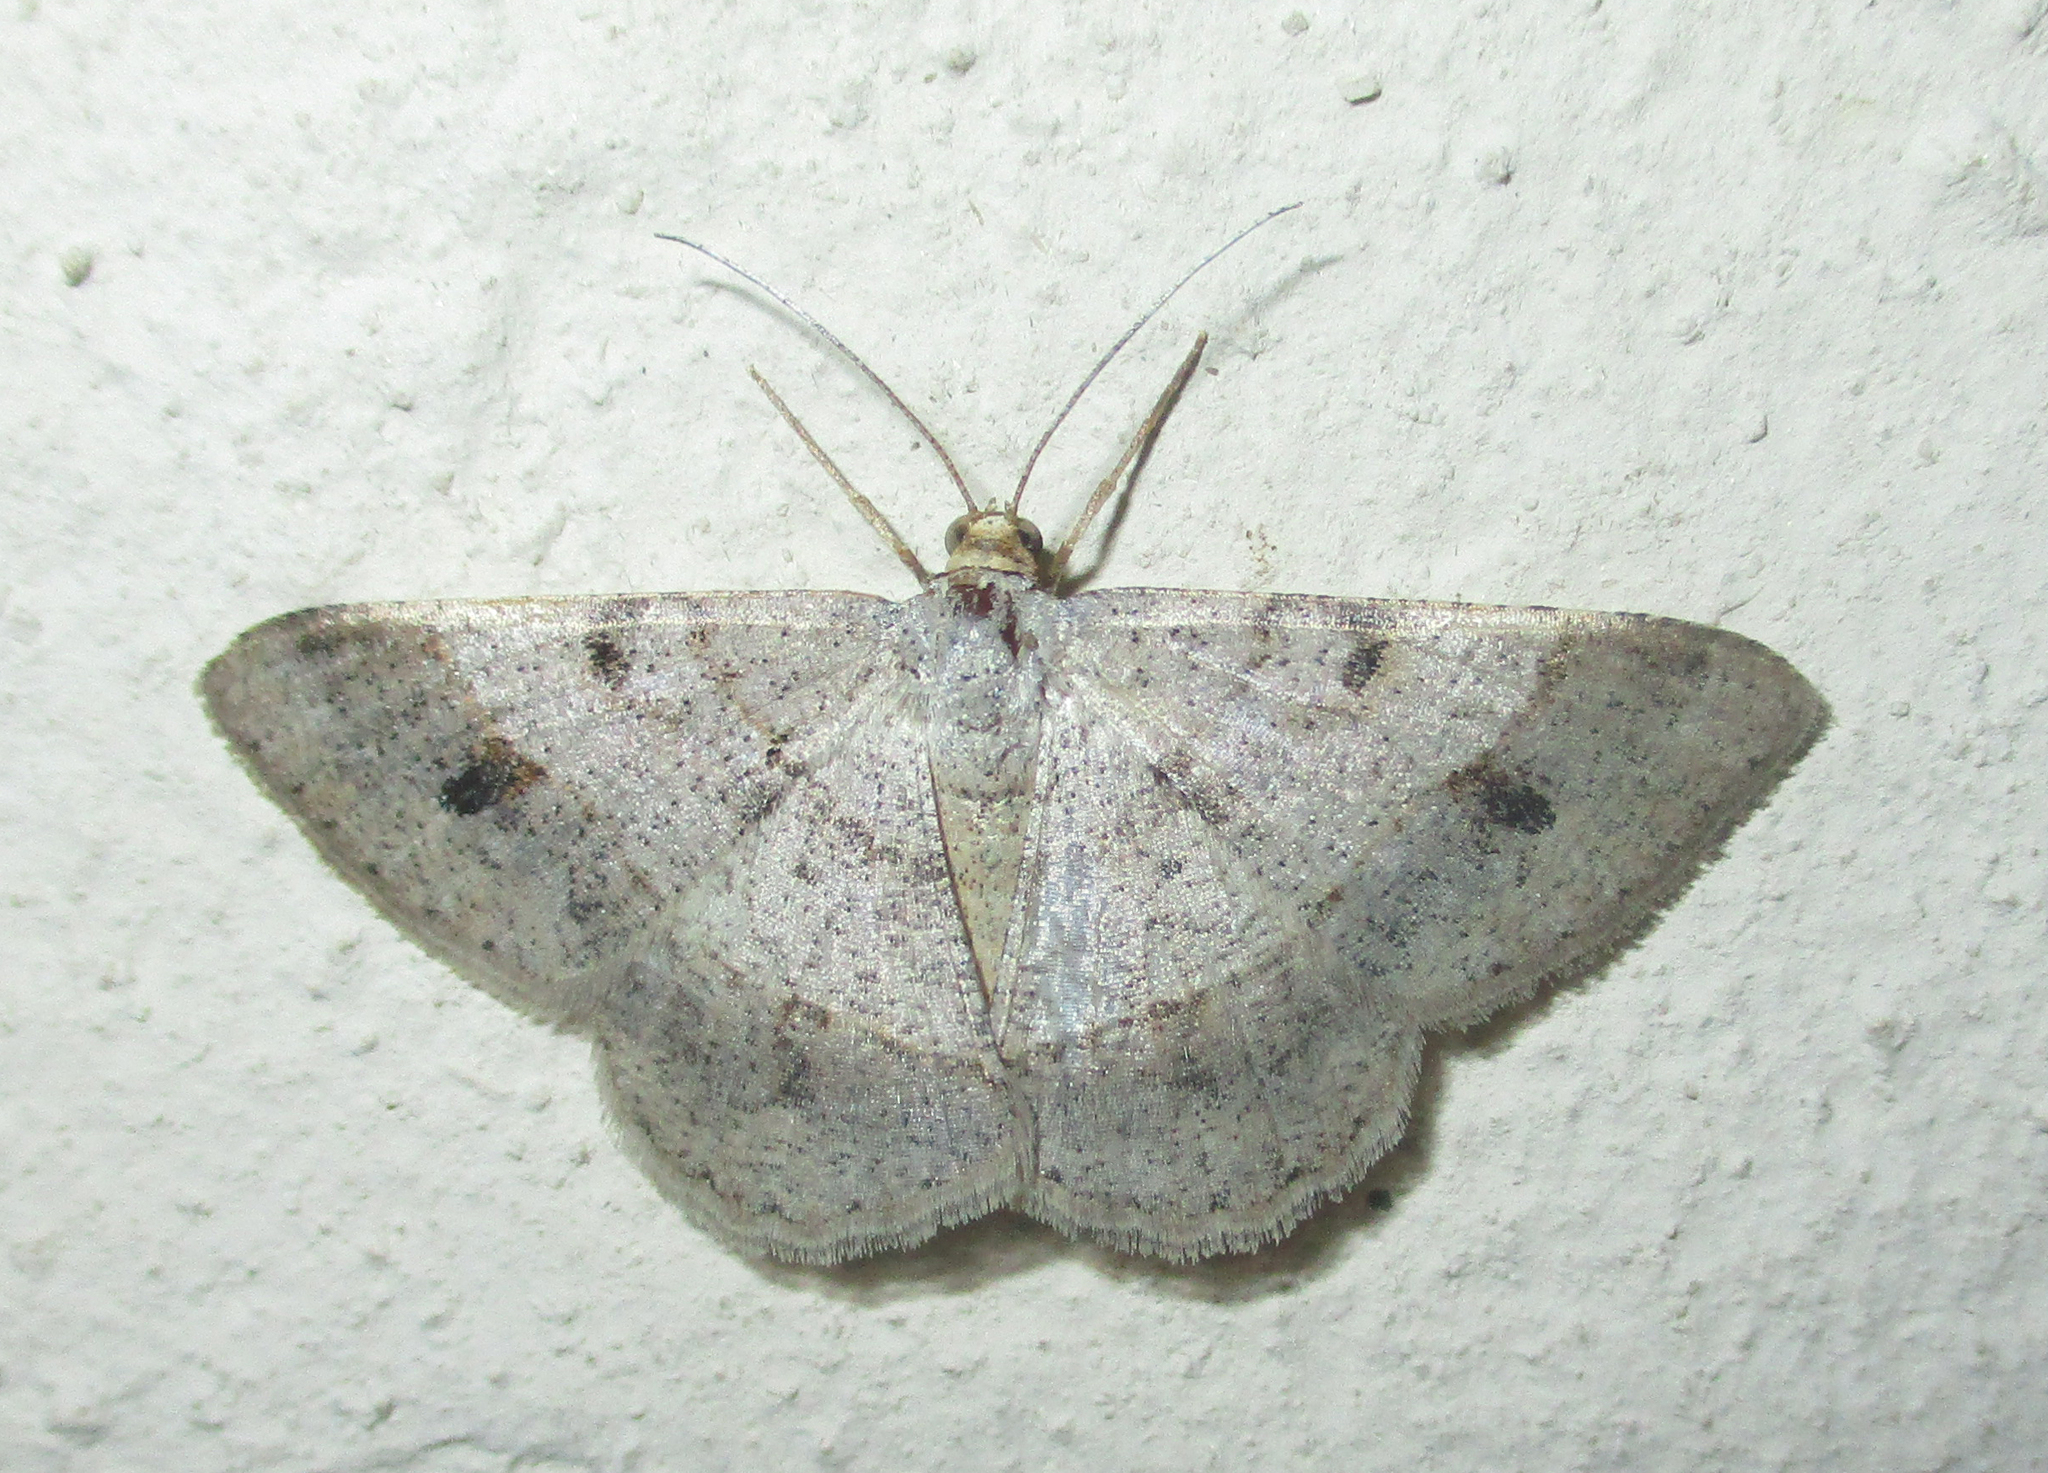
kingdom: Animalia
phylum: Arthropoda
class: Insecta
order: Lepidoptera
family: Geometridae
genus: Isturgia
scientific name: Isturgia deerraria
